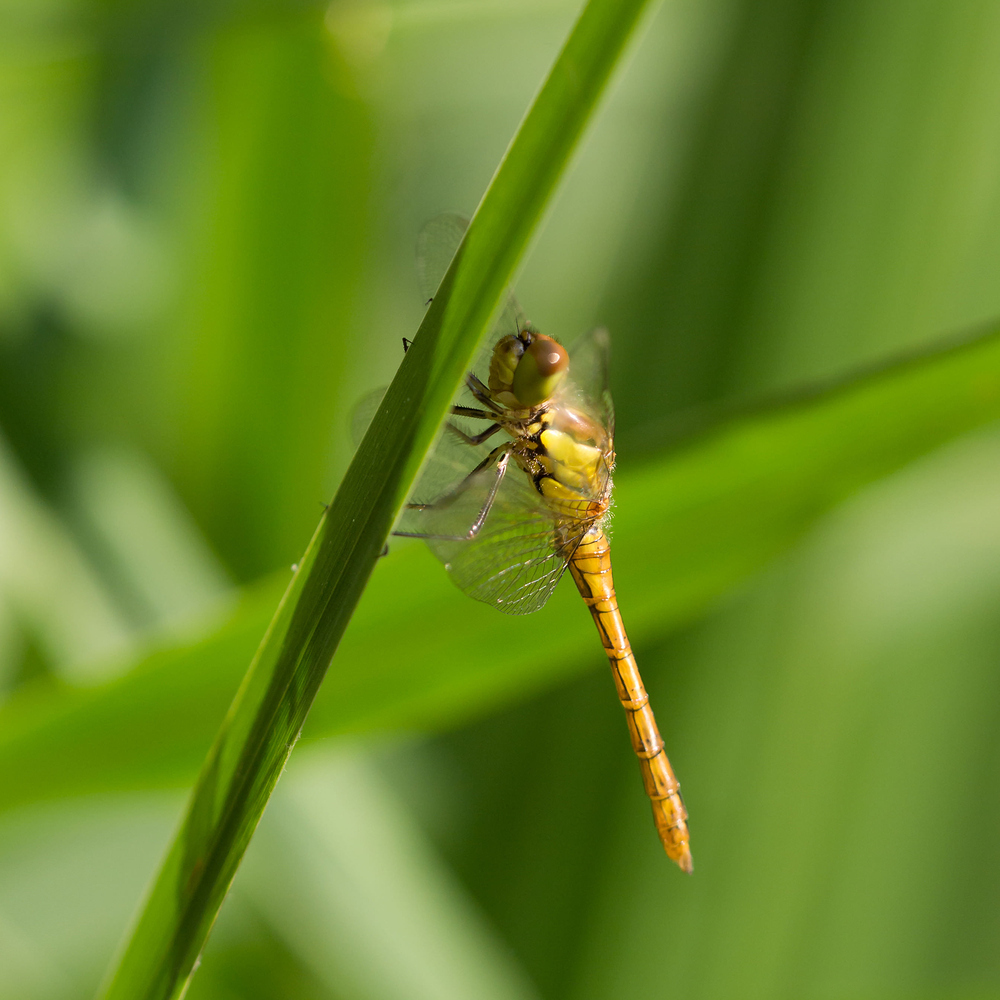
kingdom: Animalia
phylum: Arthropoda
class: Insecta
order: Odonata
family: Libellulidae
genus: Sympetrum
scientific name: Sympetrum striolatum
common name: Common darter
